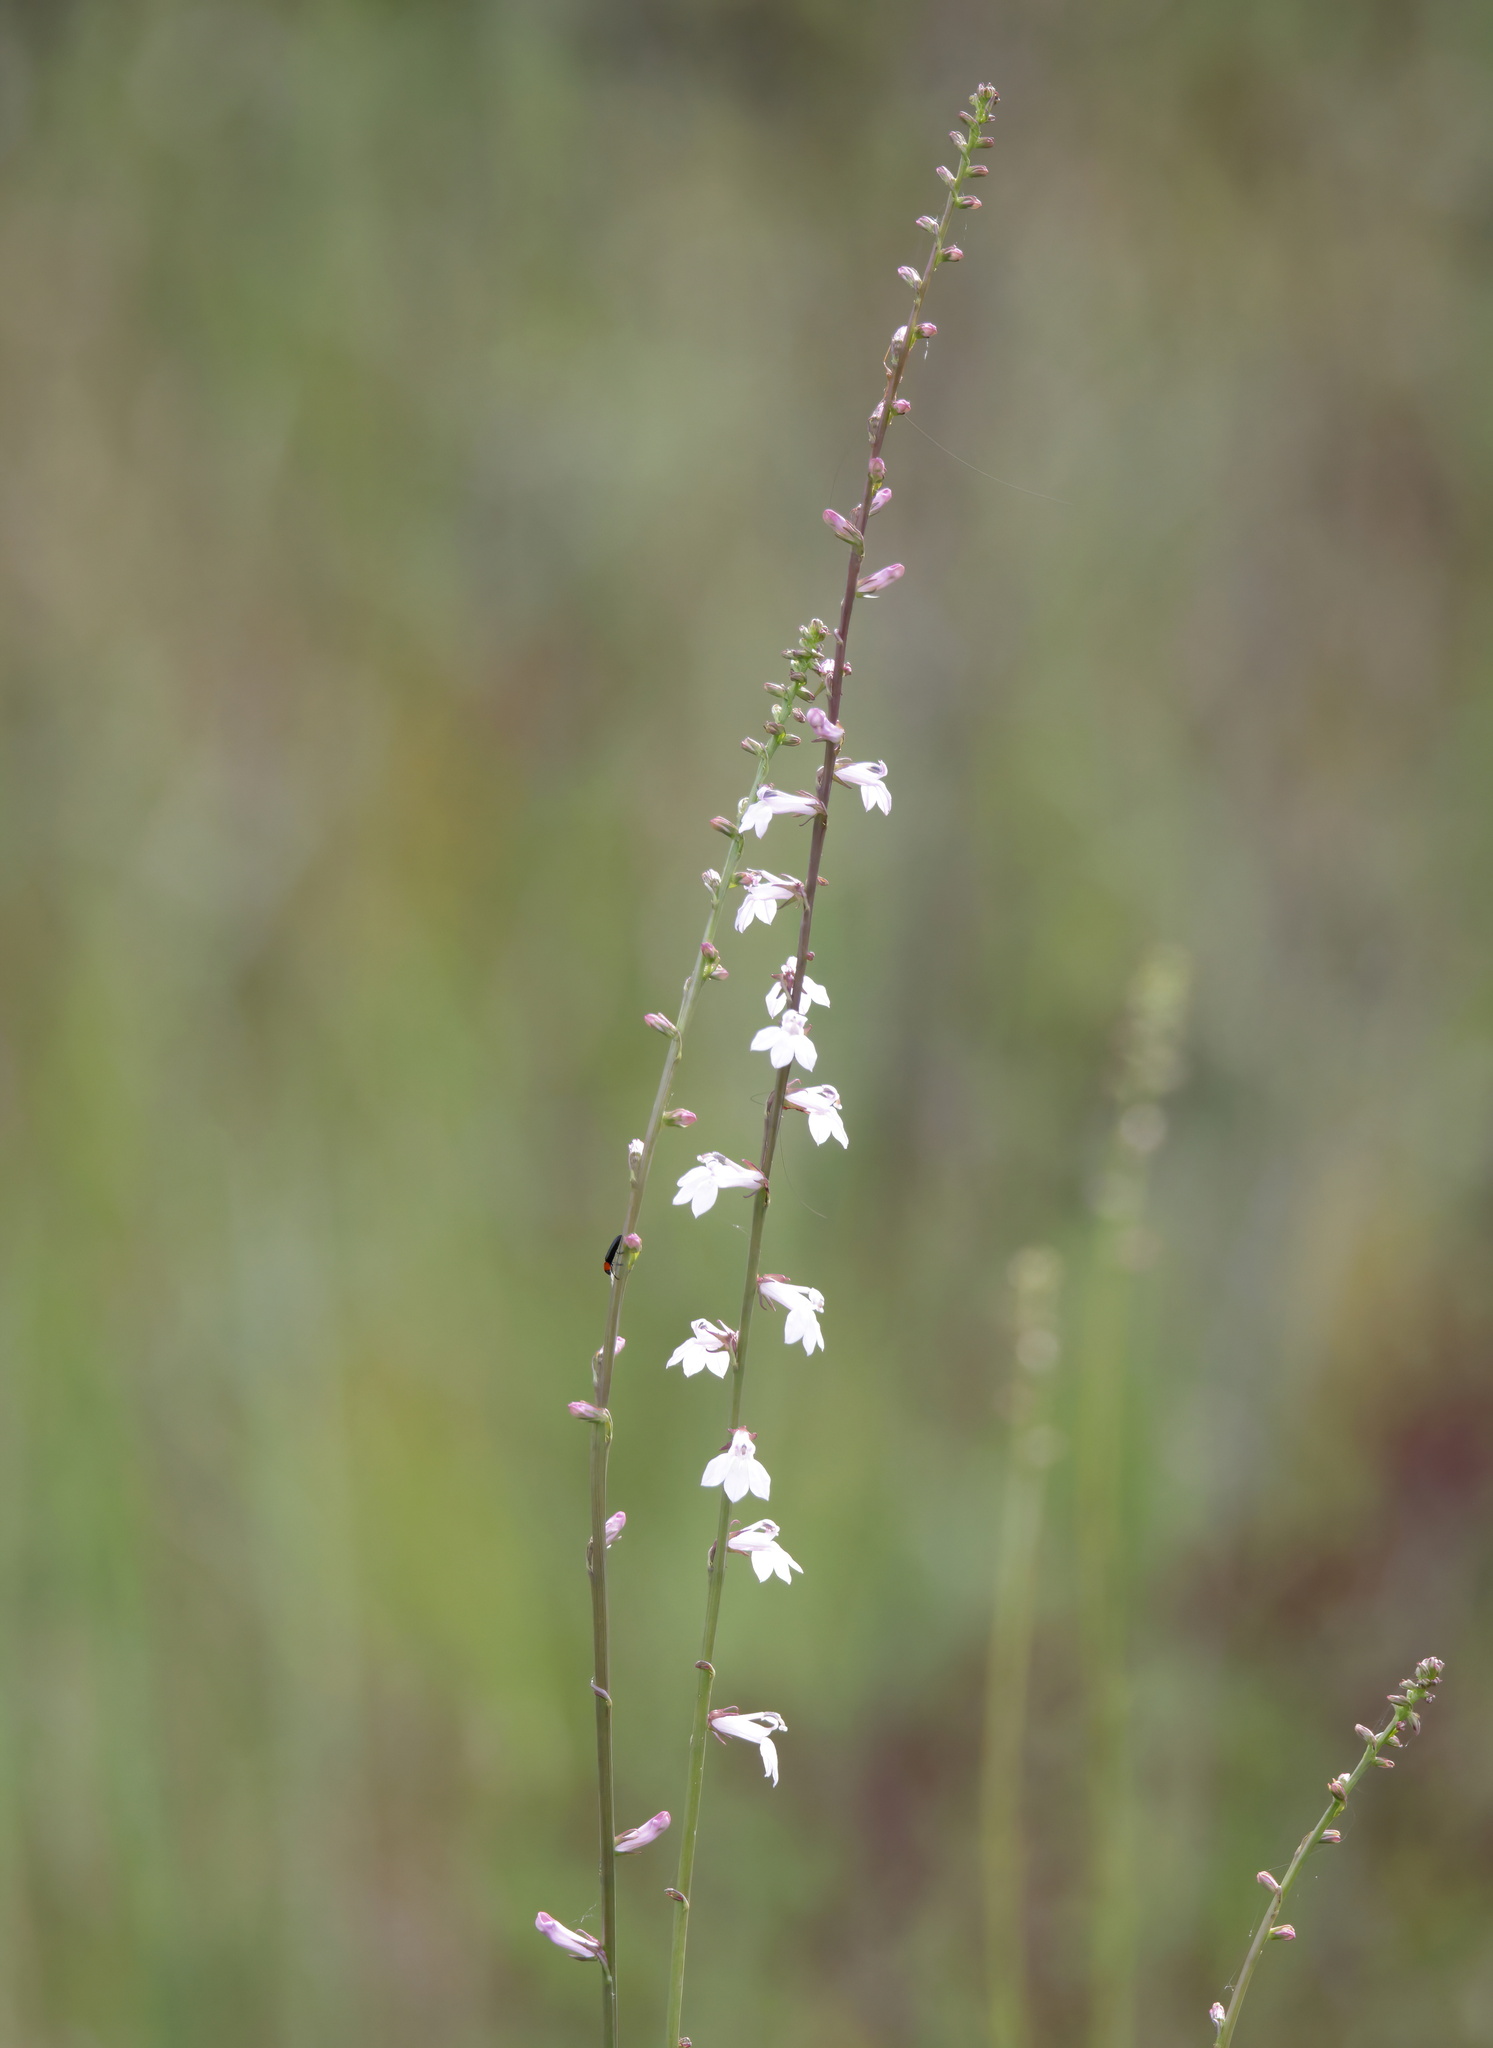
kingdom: Plantae
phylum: Tracheophyta
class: Magnoliopsida
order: Asterales
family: Campanulaceae
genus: Lobelia
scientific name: Lobelia floridana
